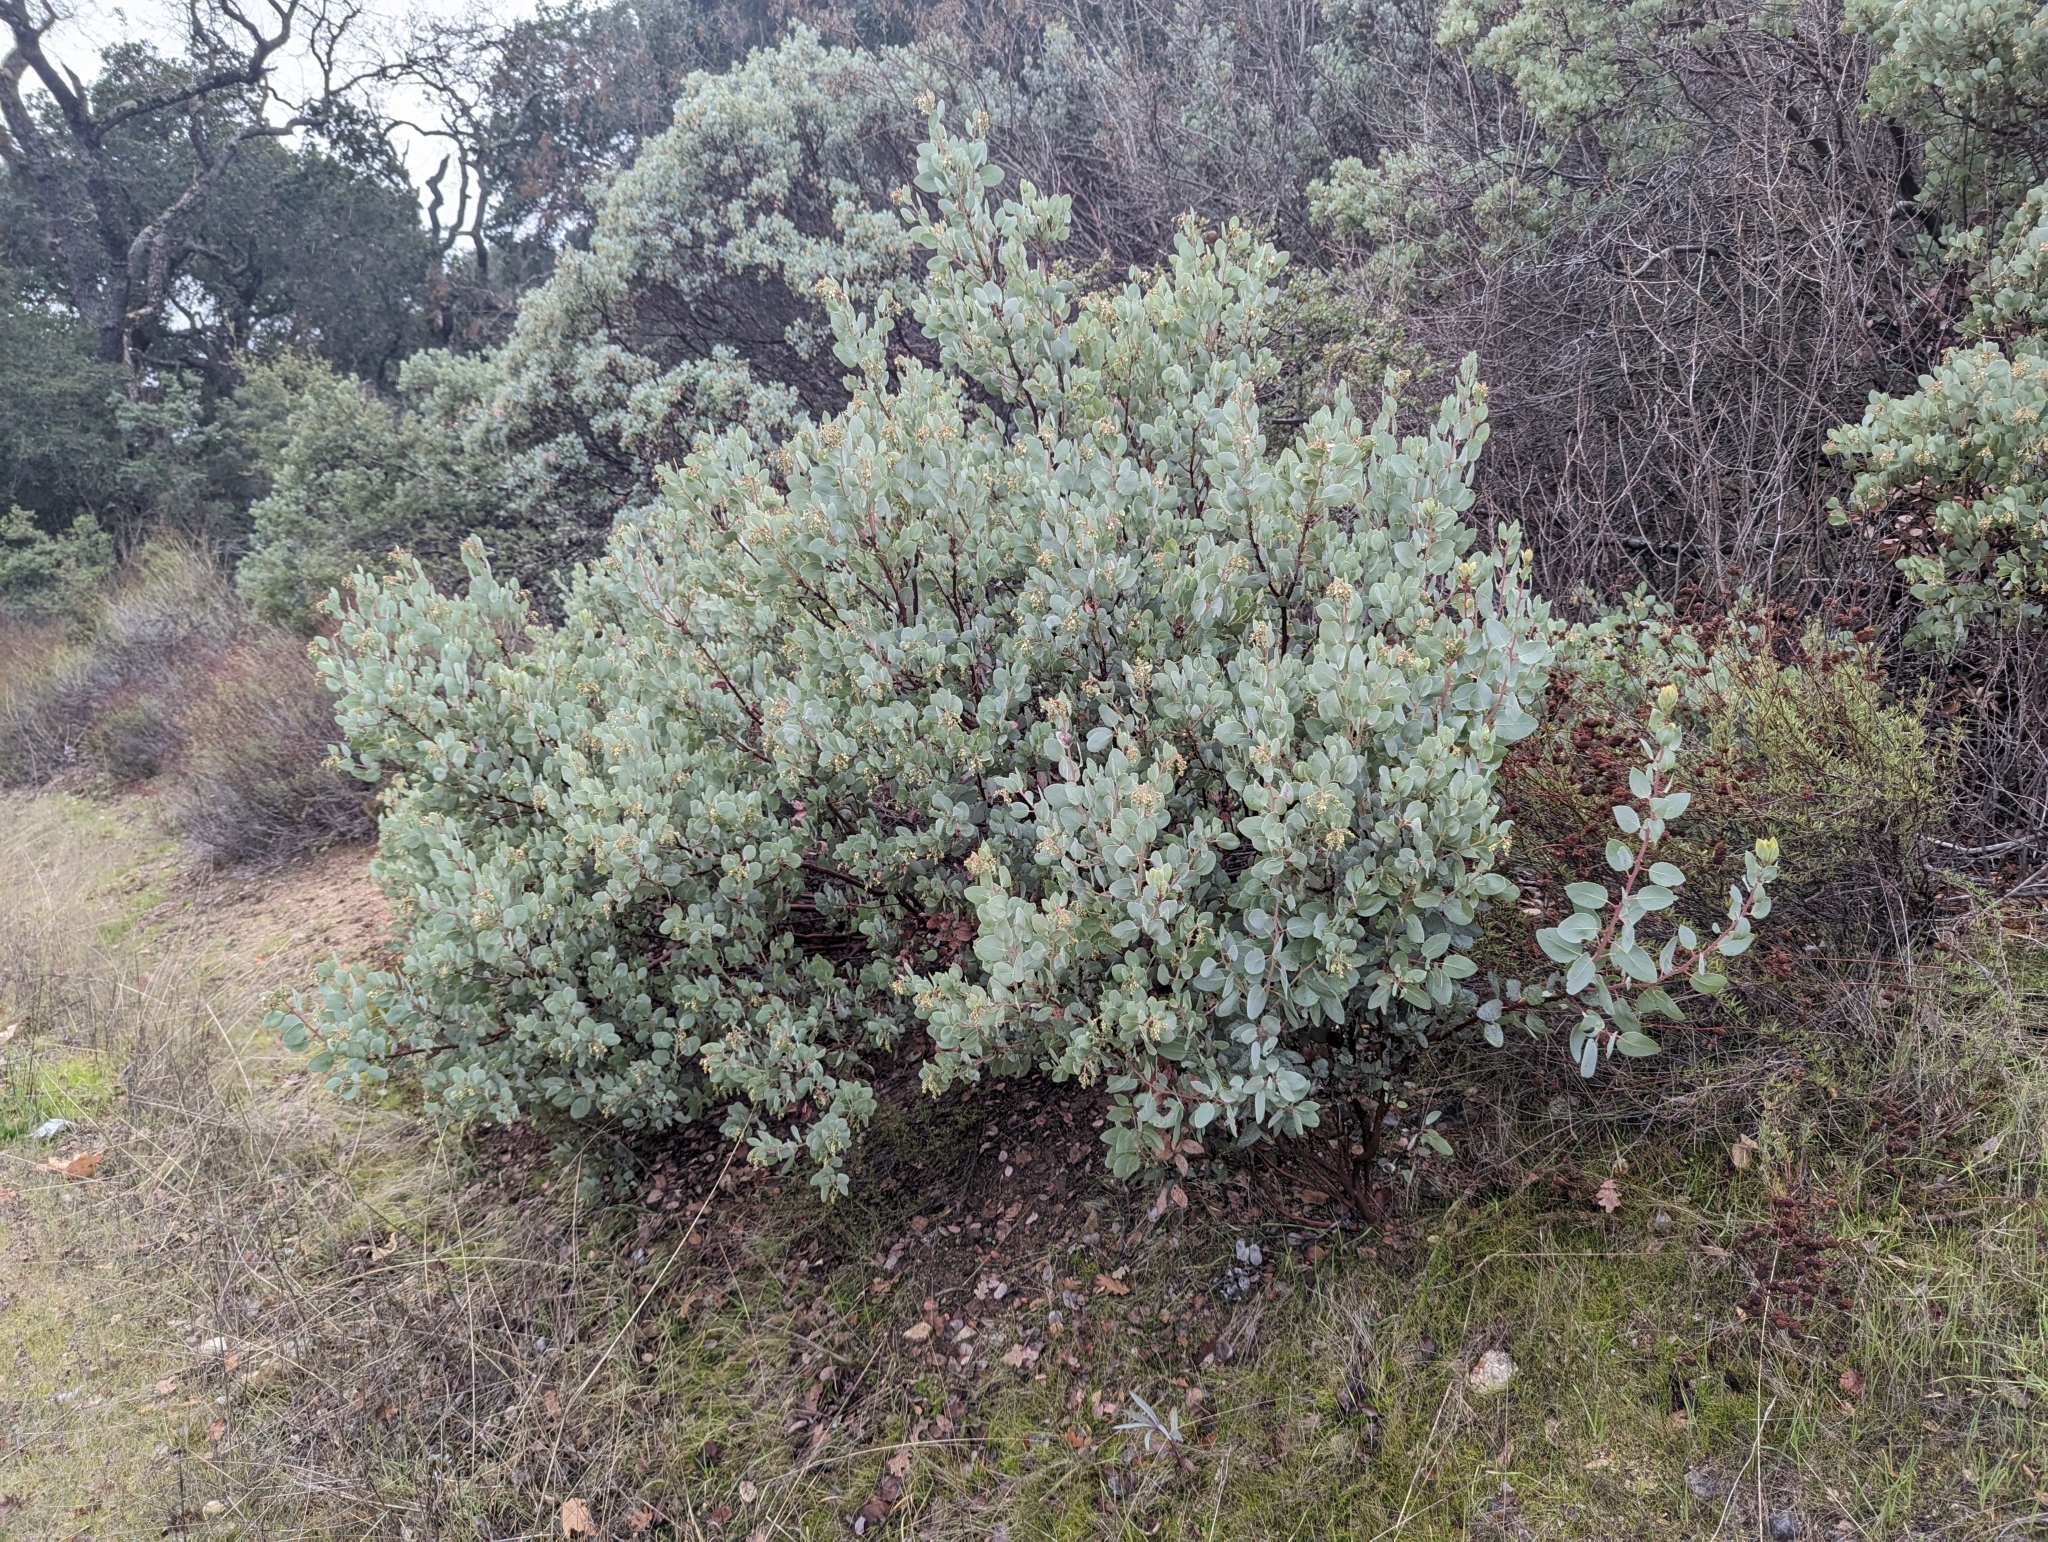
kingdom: Plantae
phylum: Tracheophyta
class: Magnoliopsida
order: Ericales
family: Ericaceae
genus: Arctostaphylos
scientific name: Arctostaphylos glauca
